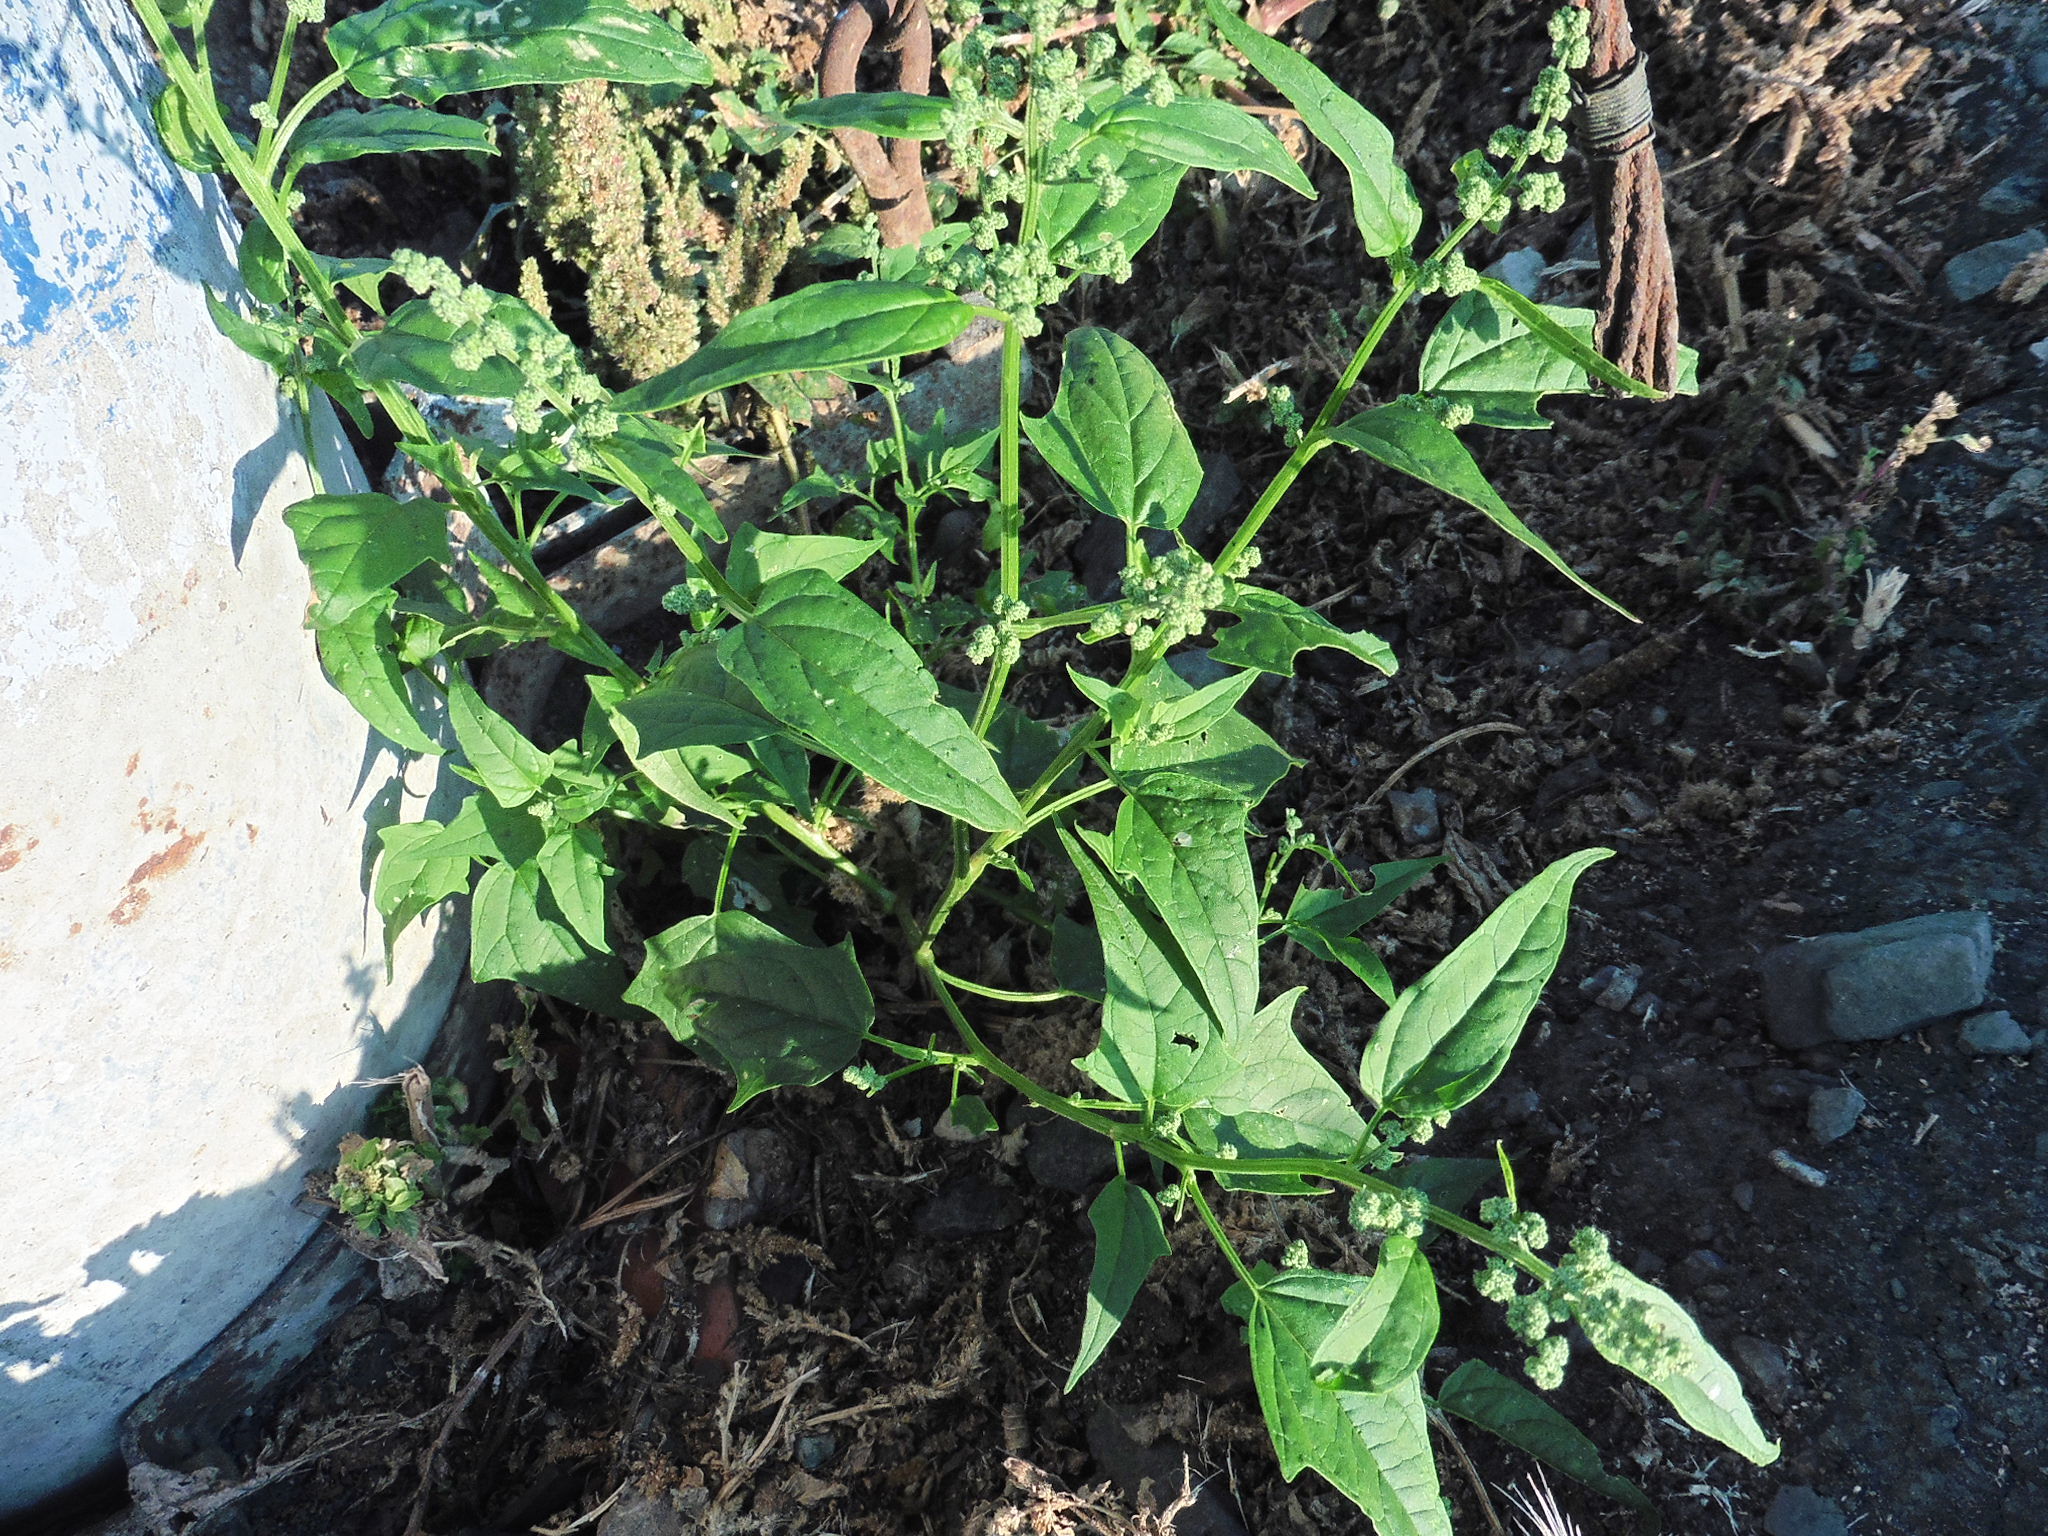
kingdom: Plantae
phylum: Tracheophyta
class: Magnoliopsida
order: Caryophyllales
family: Amaranthaceae
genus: Chenopodiastrum
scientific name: Chenopodiastrum hybridum
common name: Mapleleaf goosefoot
